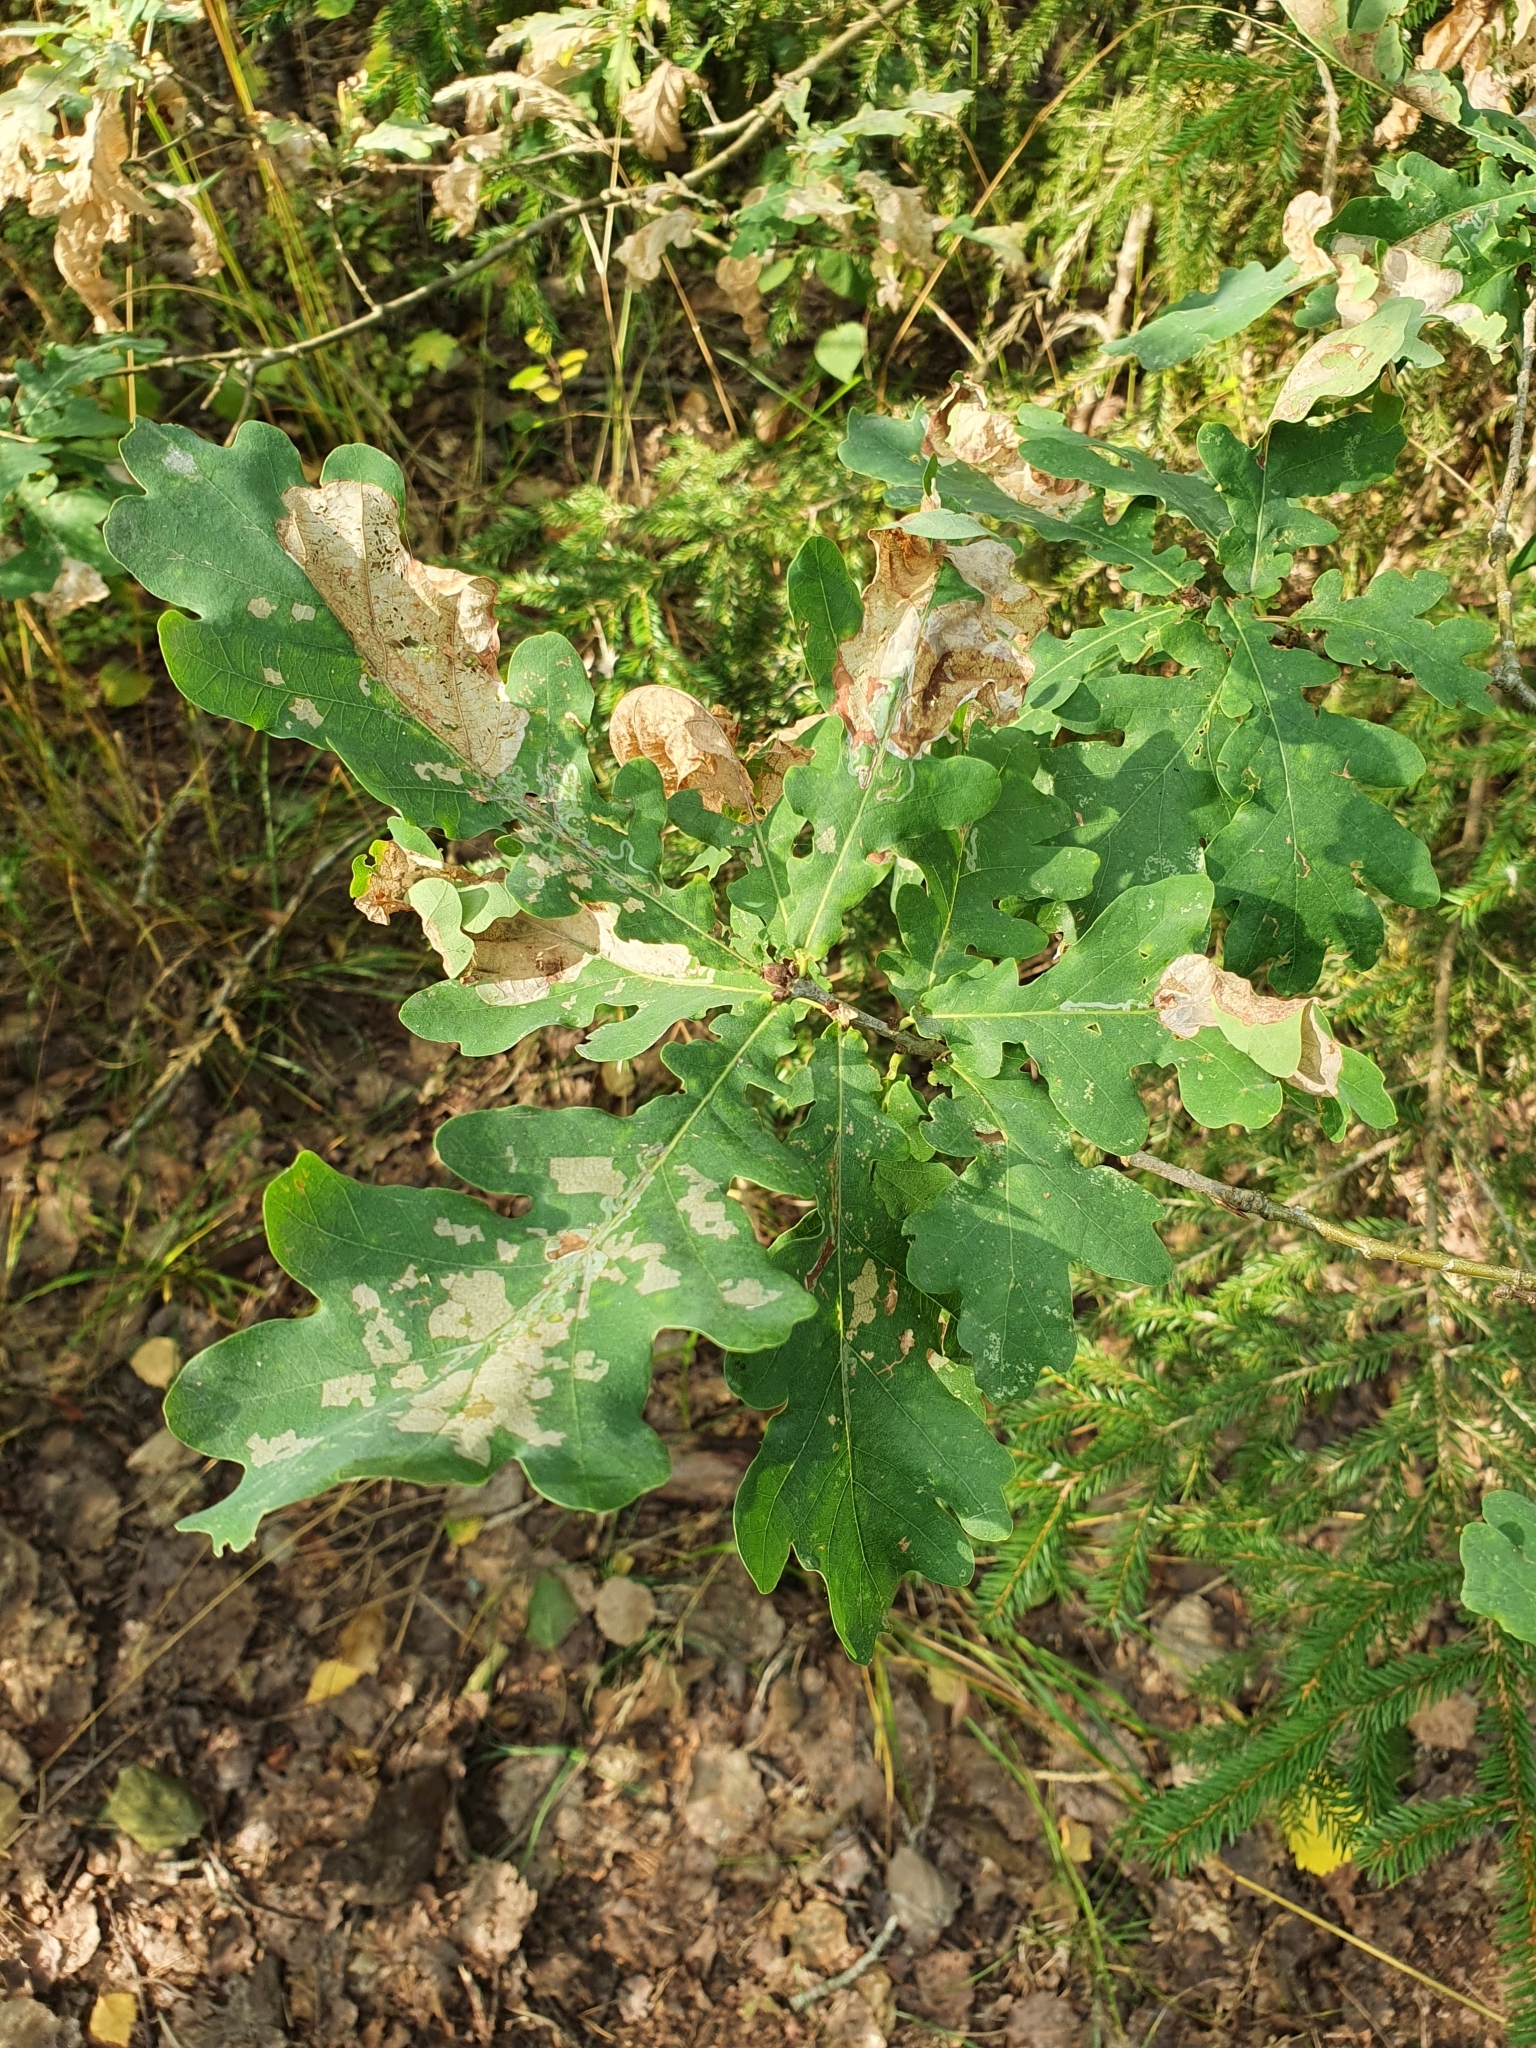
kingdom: Plantae
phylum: Tracheophyta
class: Magnoliopsida
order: Fagales
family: Fagaceae
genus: Quercus
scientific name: Quercus robur
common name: Pedunculate oak
